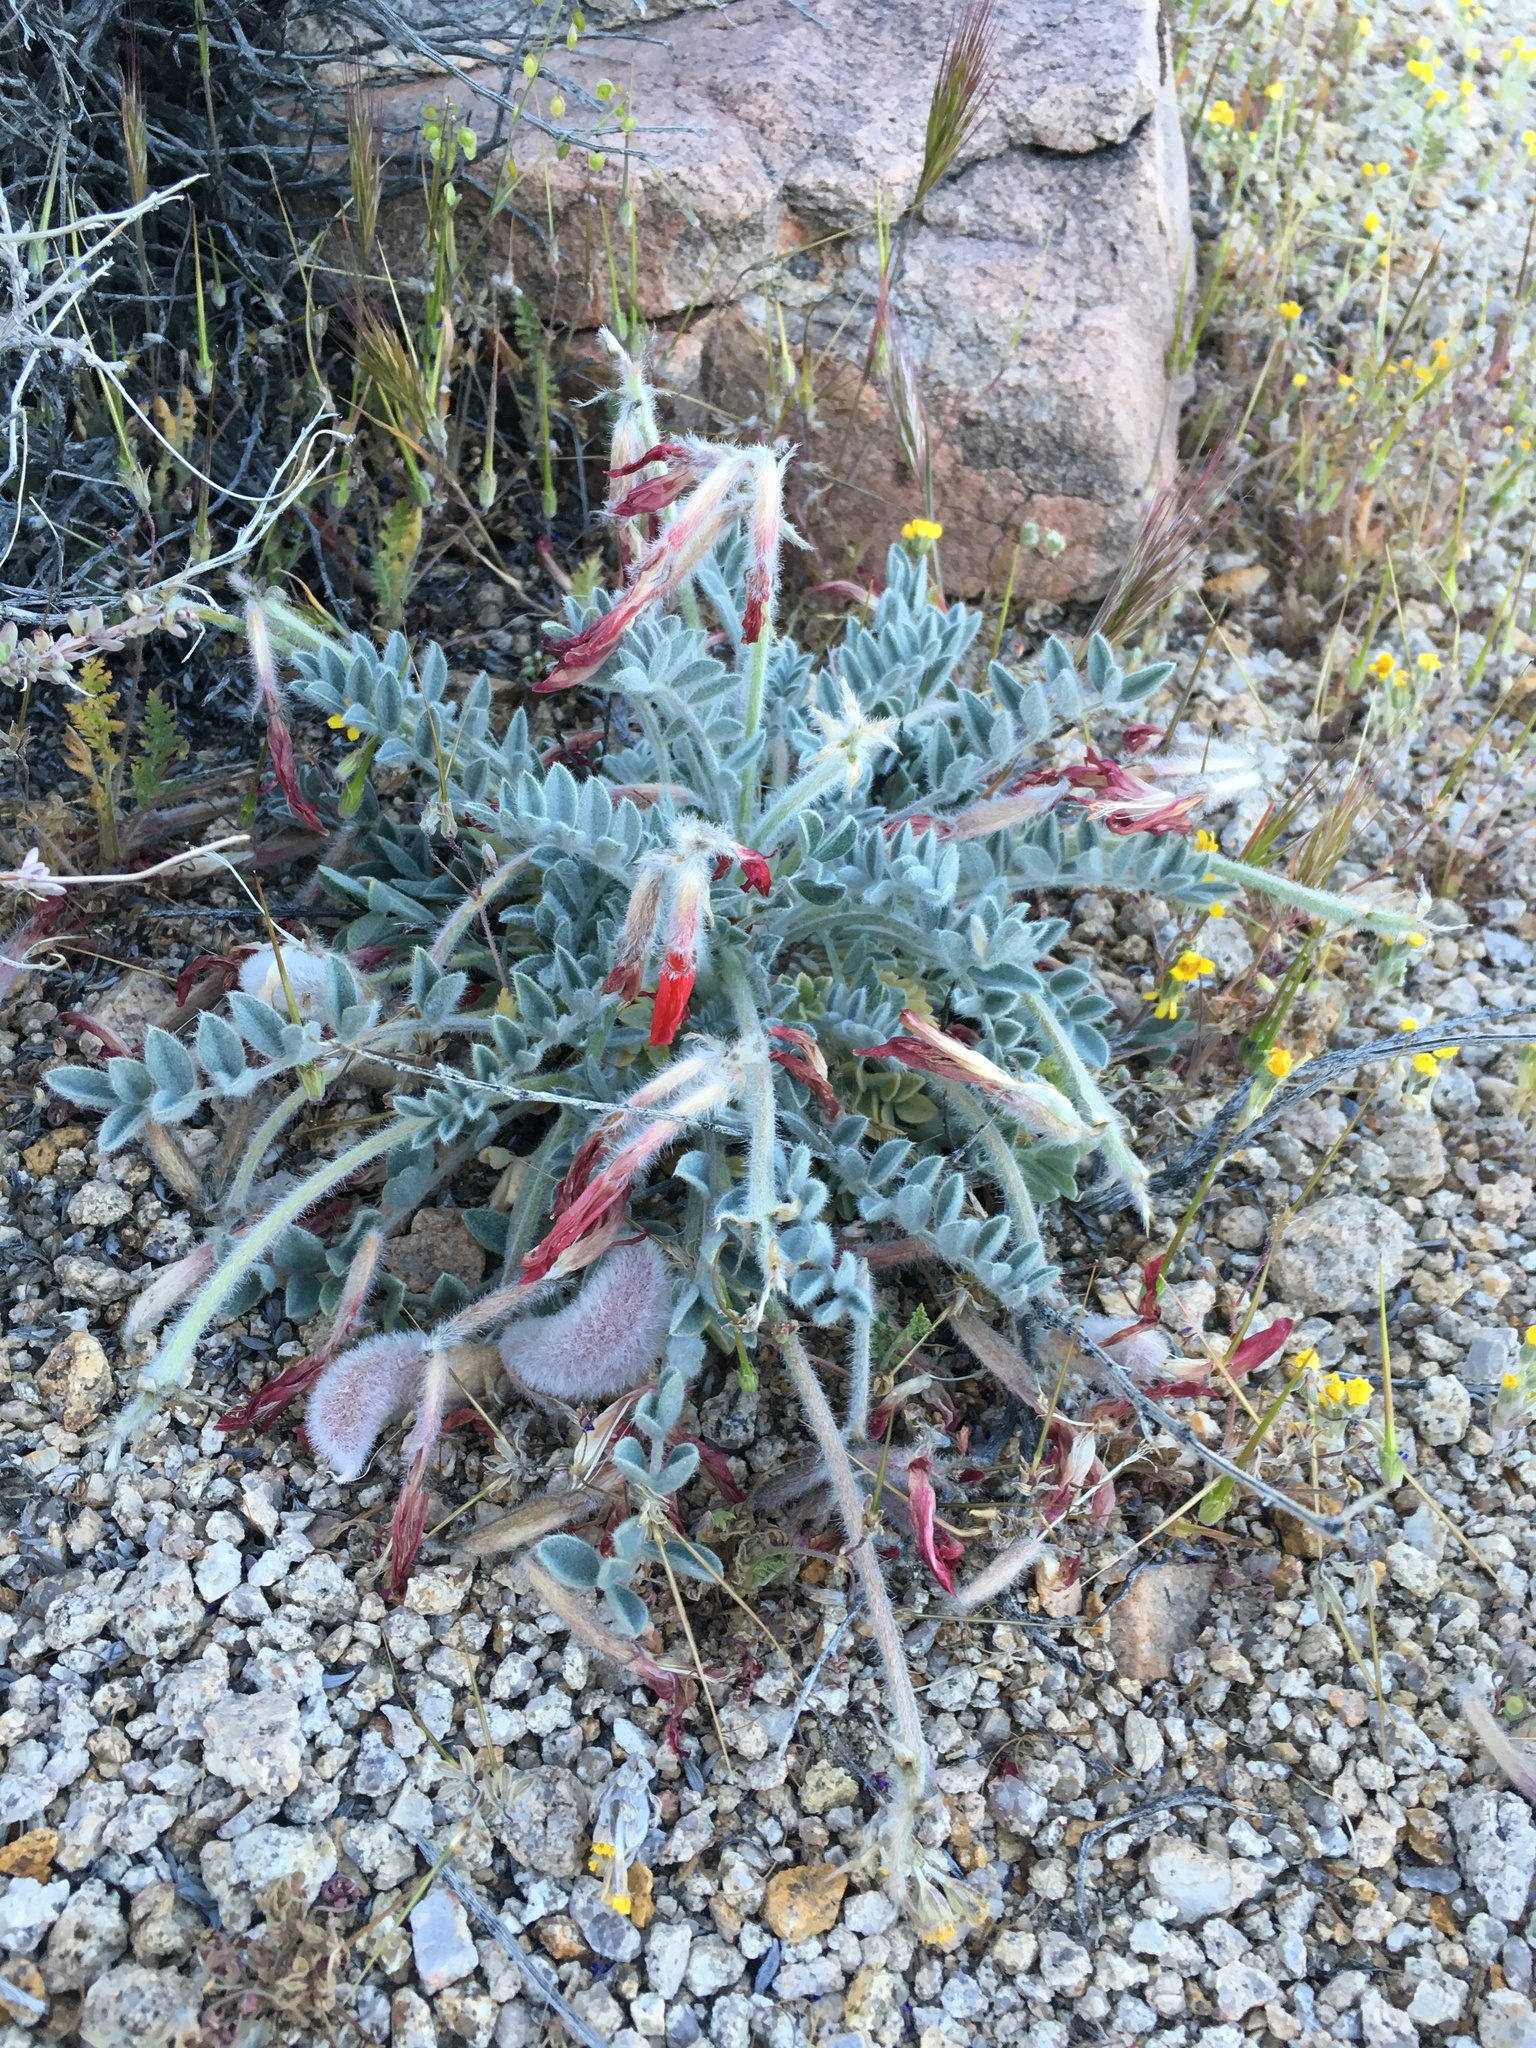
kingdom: Plantae
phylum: Tracheophyta
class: Magnoliopsida
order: Fabales
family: Fabaceae
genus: Astragalus
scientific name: Astragalus coccineus
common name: Scarlet milk-vetch
